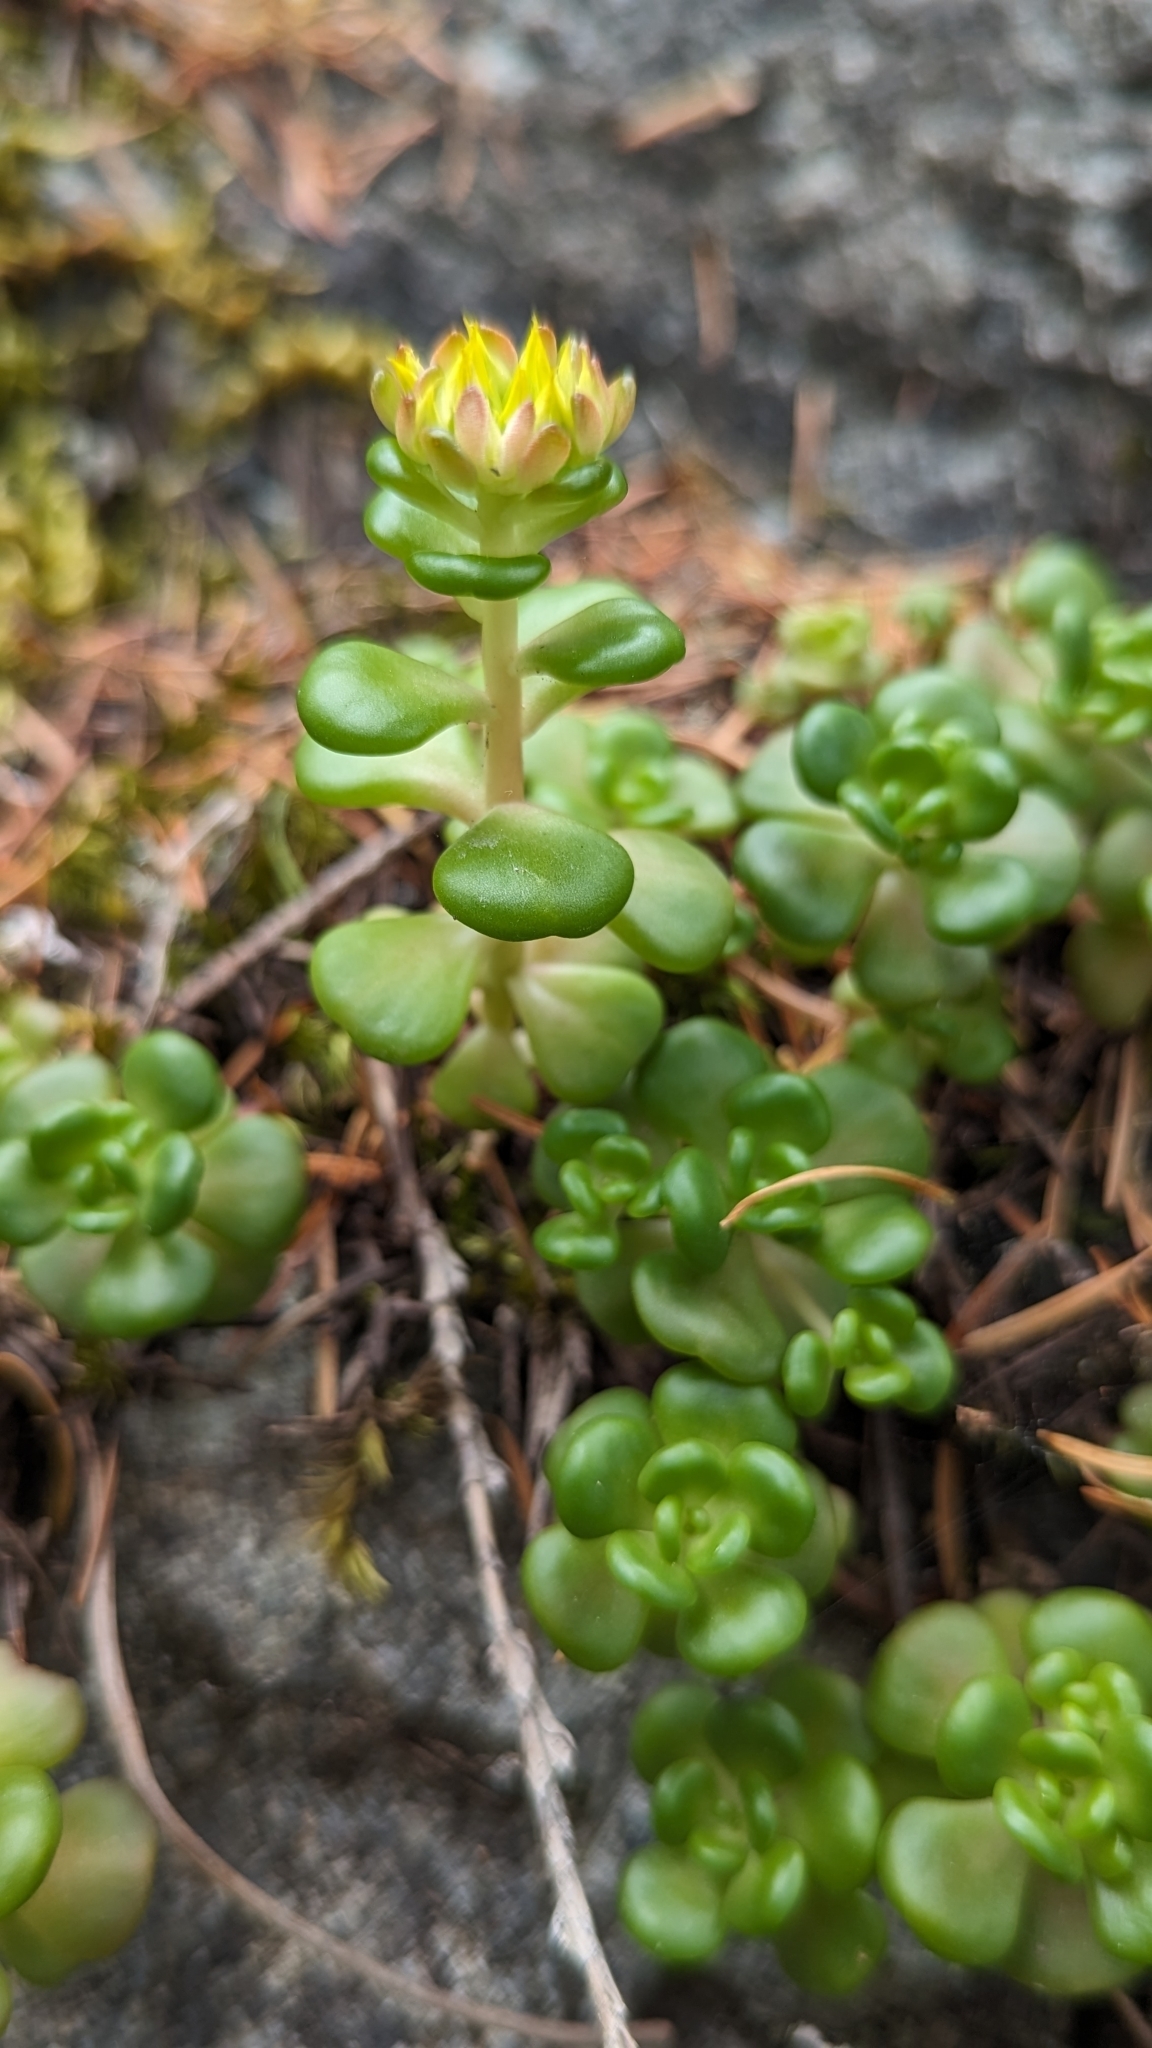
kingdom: Plantae
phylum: Tracheophyta
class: Magnoliopsida
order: Saxifragales
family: Crassulaceae
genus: Sedum
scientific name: Sedum oreganum
